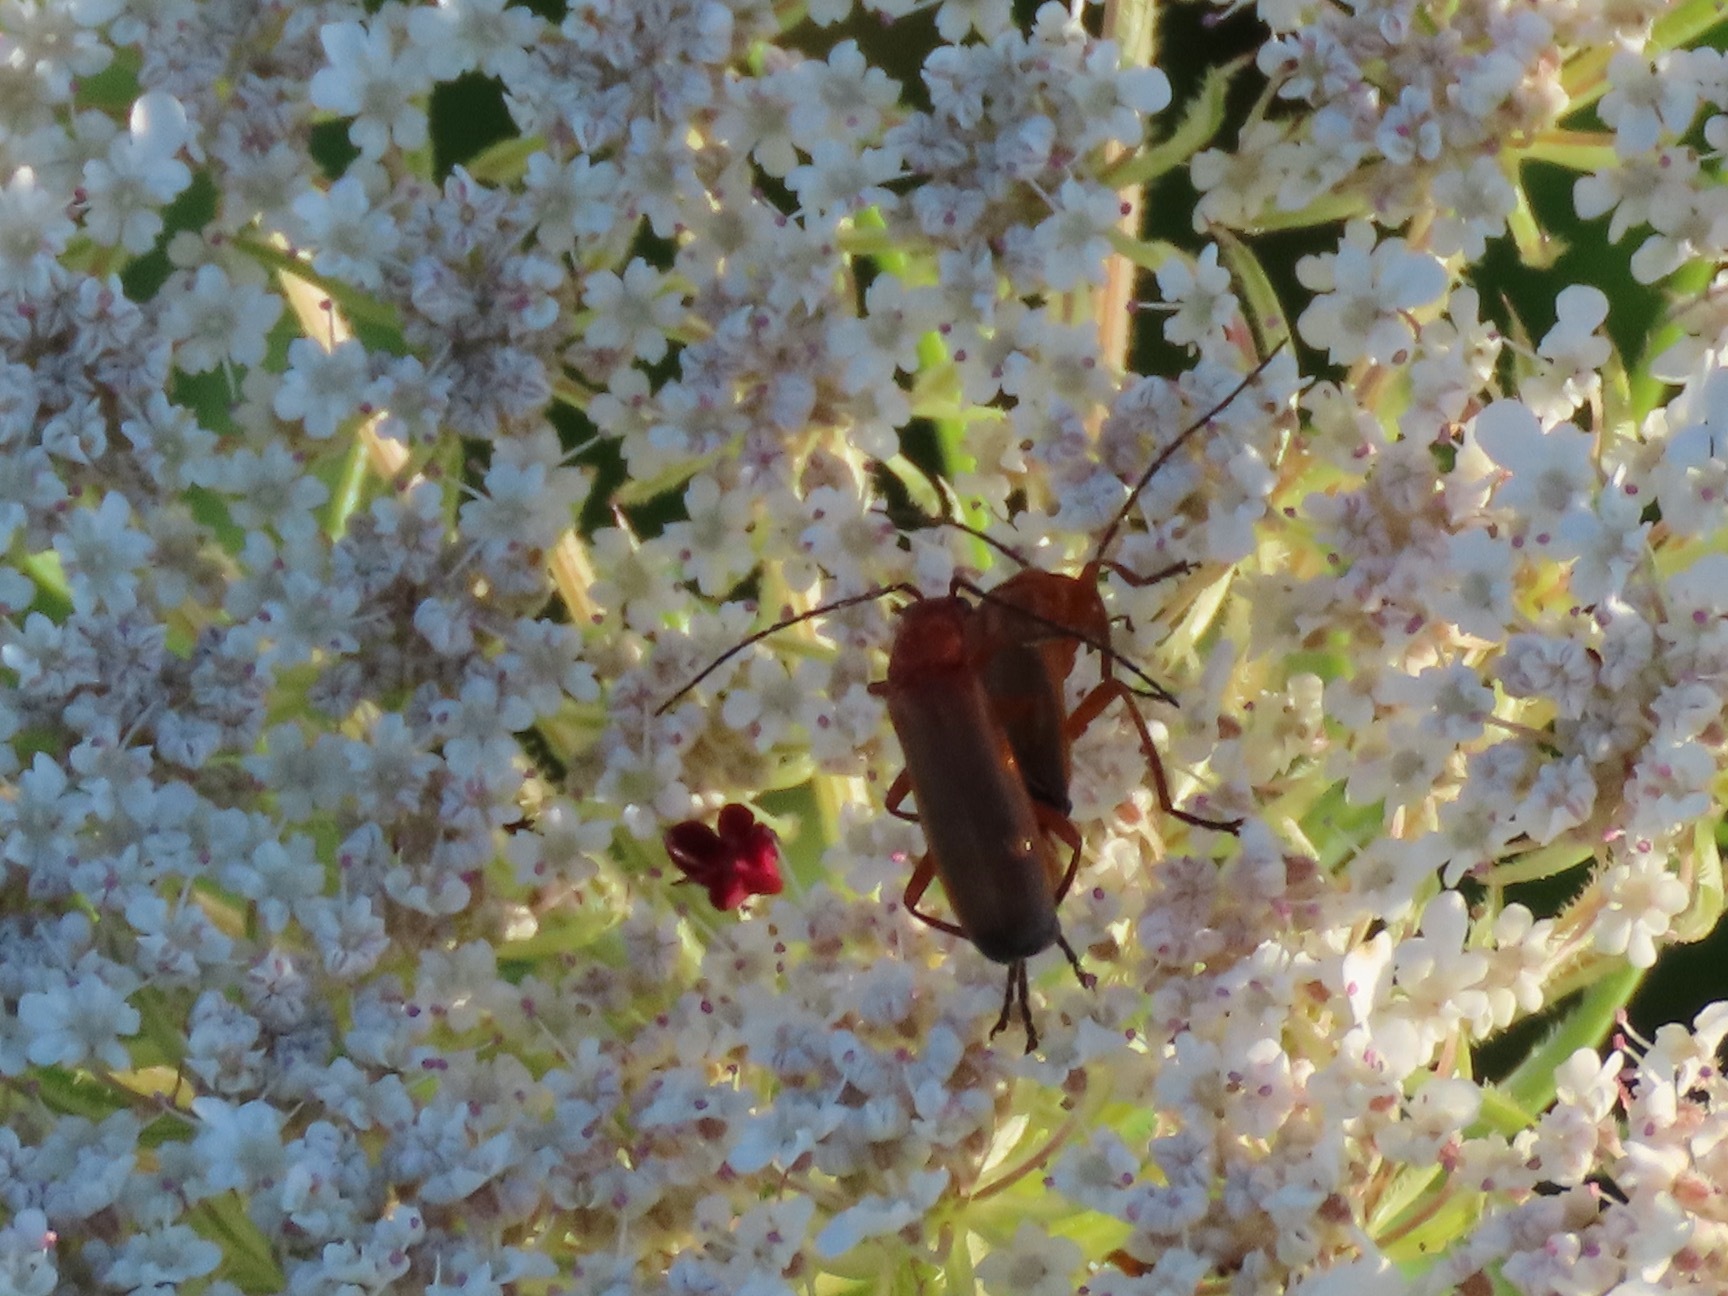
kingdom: Animalia
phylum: Arthropoda
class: Insecta
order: Coleoptera
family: Cantharidae
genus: Rhagonycha
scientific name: Rhagonycha fulva
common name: Common red soldier beetle
